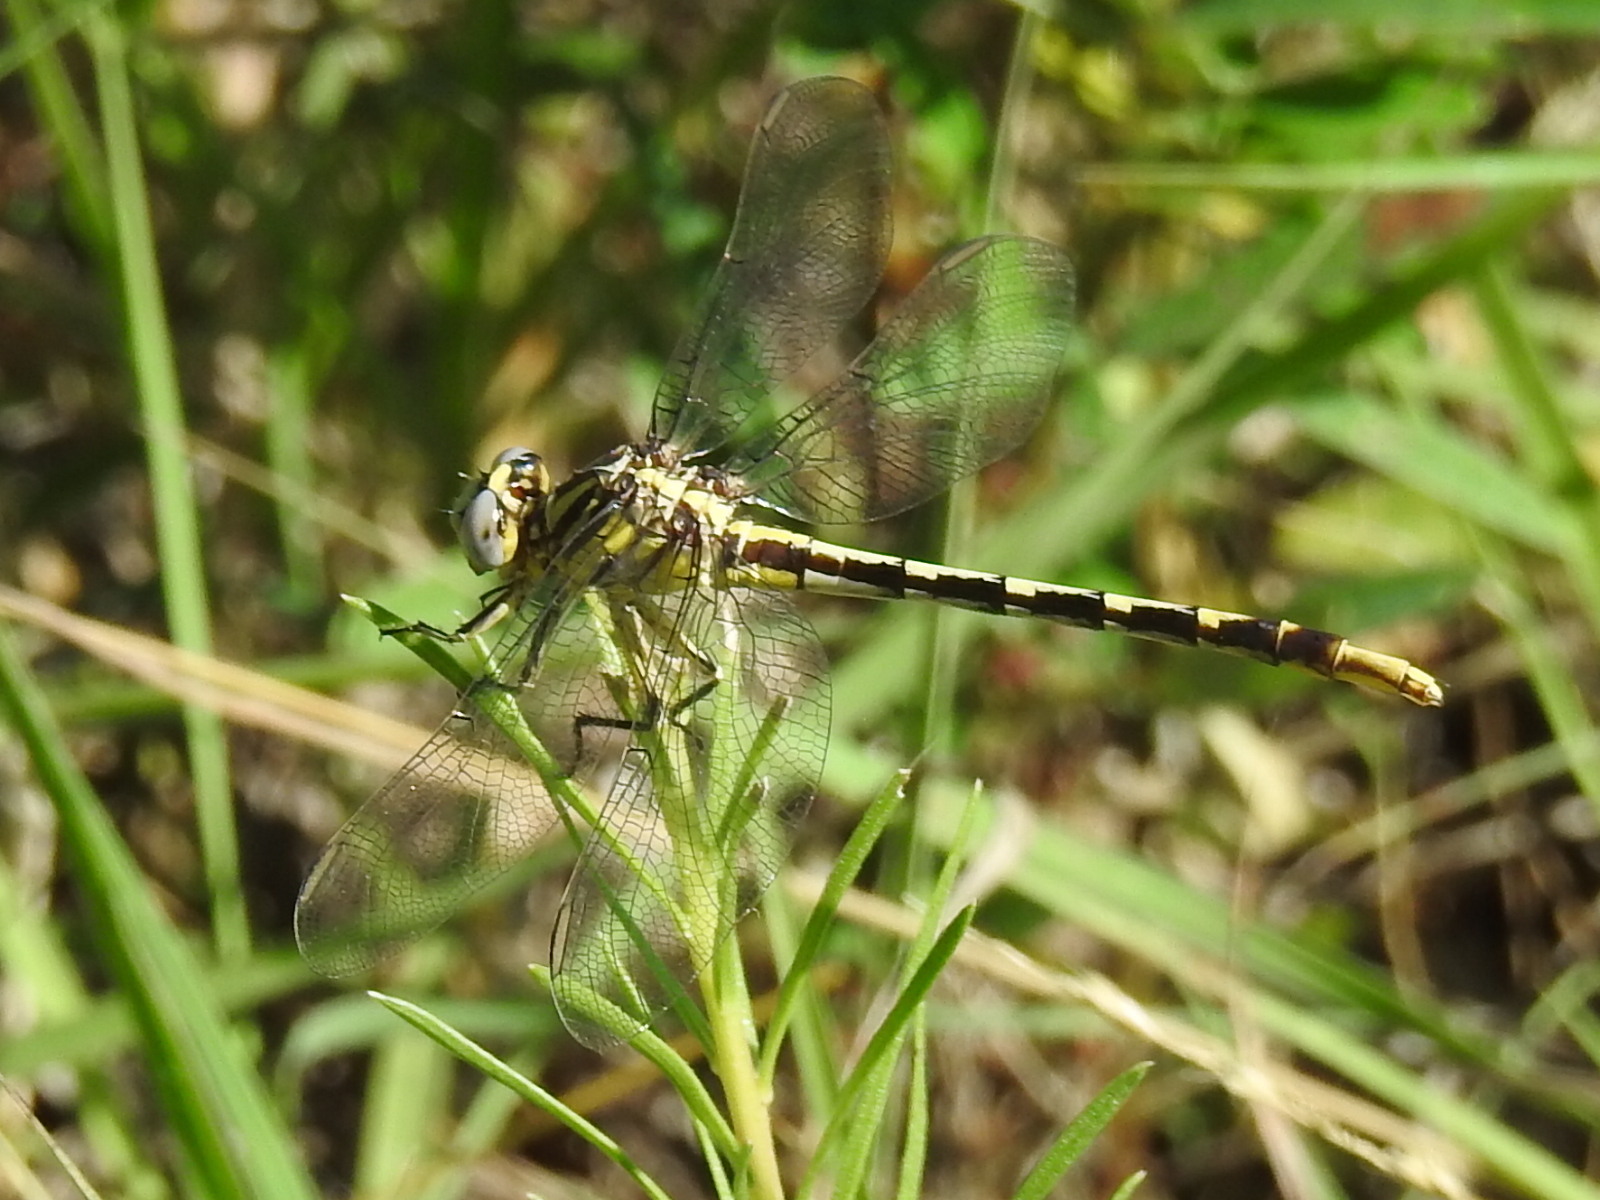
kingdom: Animalia
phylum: Arthropoda
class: Insecta
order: Odonata
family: Gomphidae
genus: Phanogomphus
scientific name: Phanogomphus militaris
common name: Sulphur-tipped clubtail
